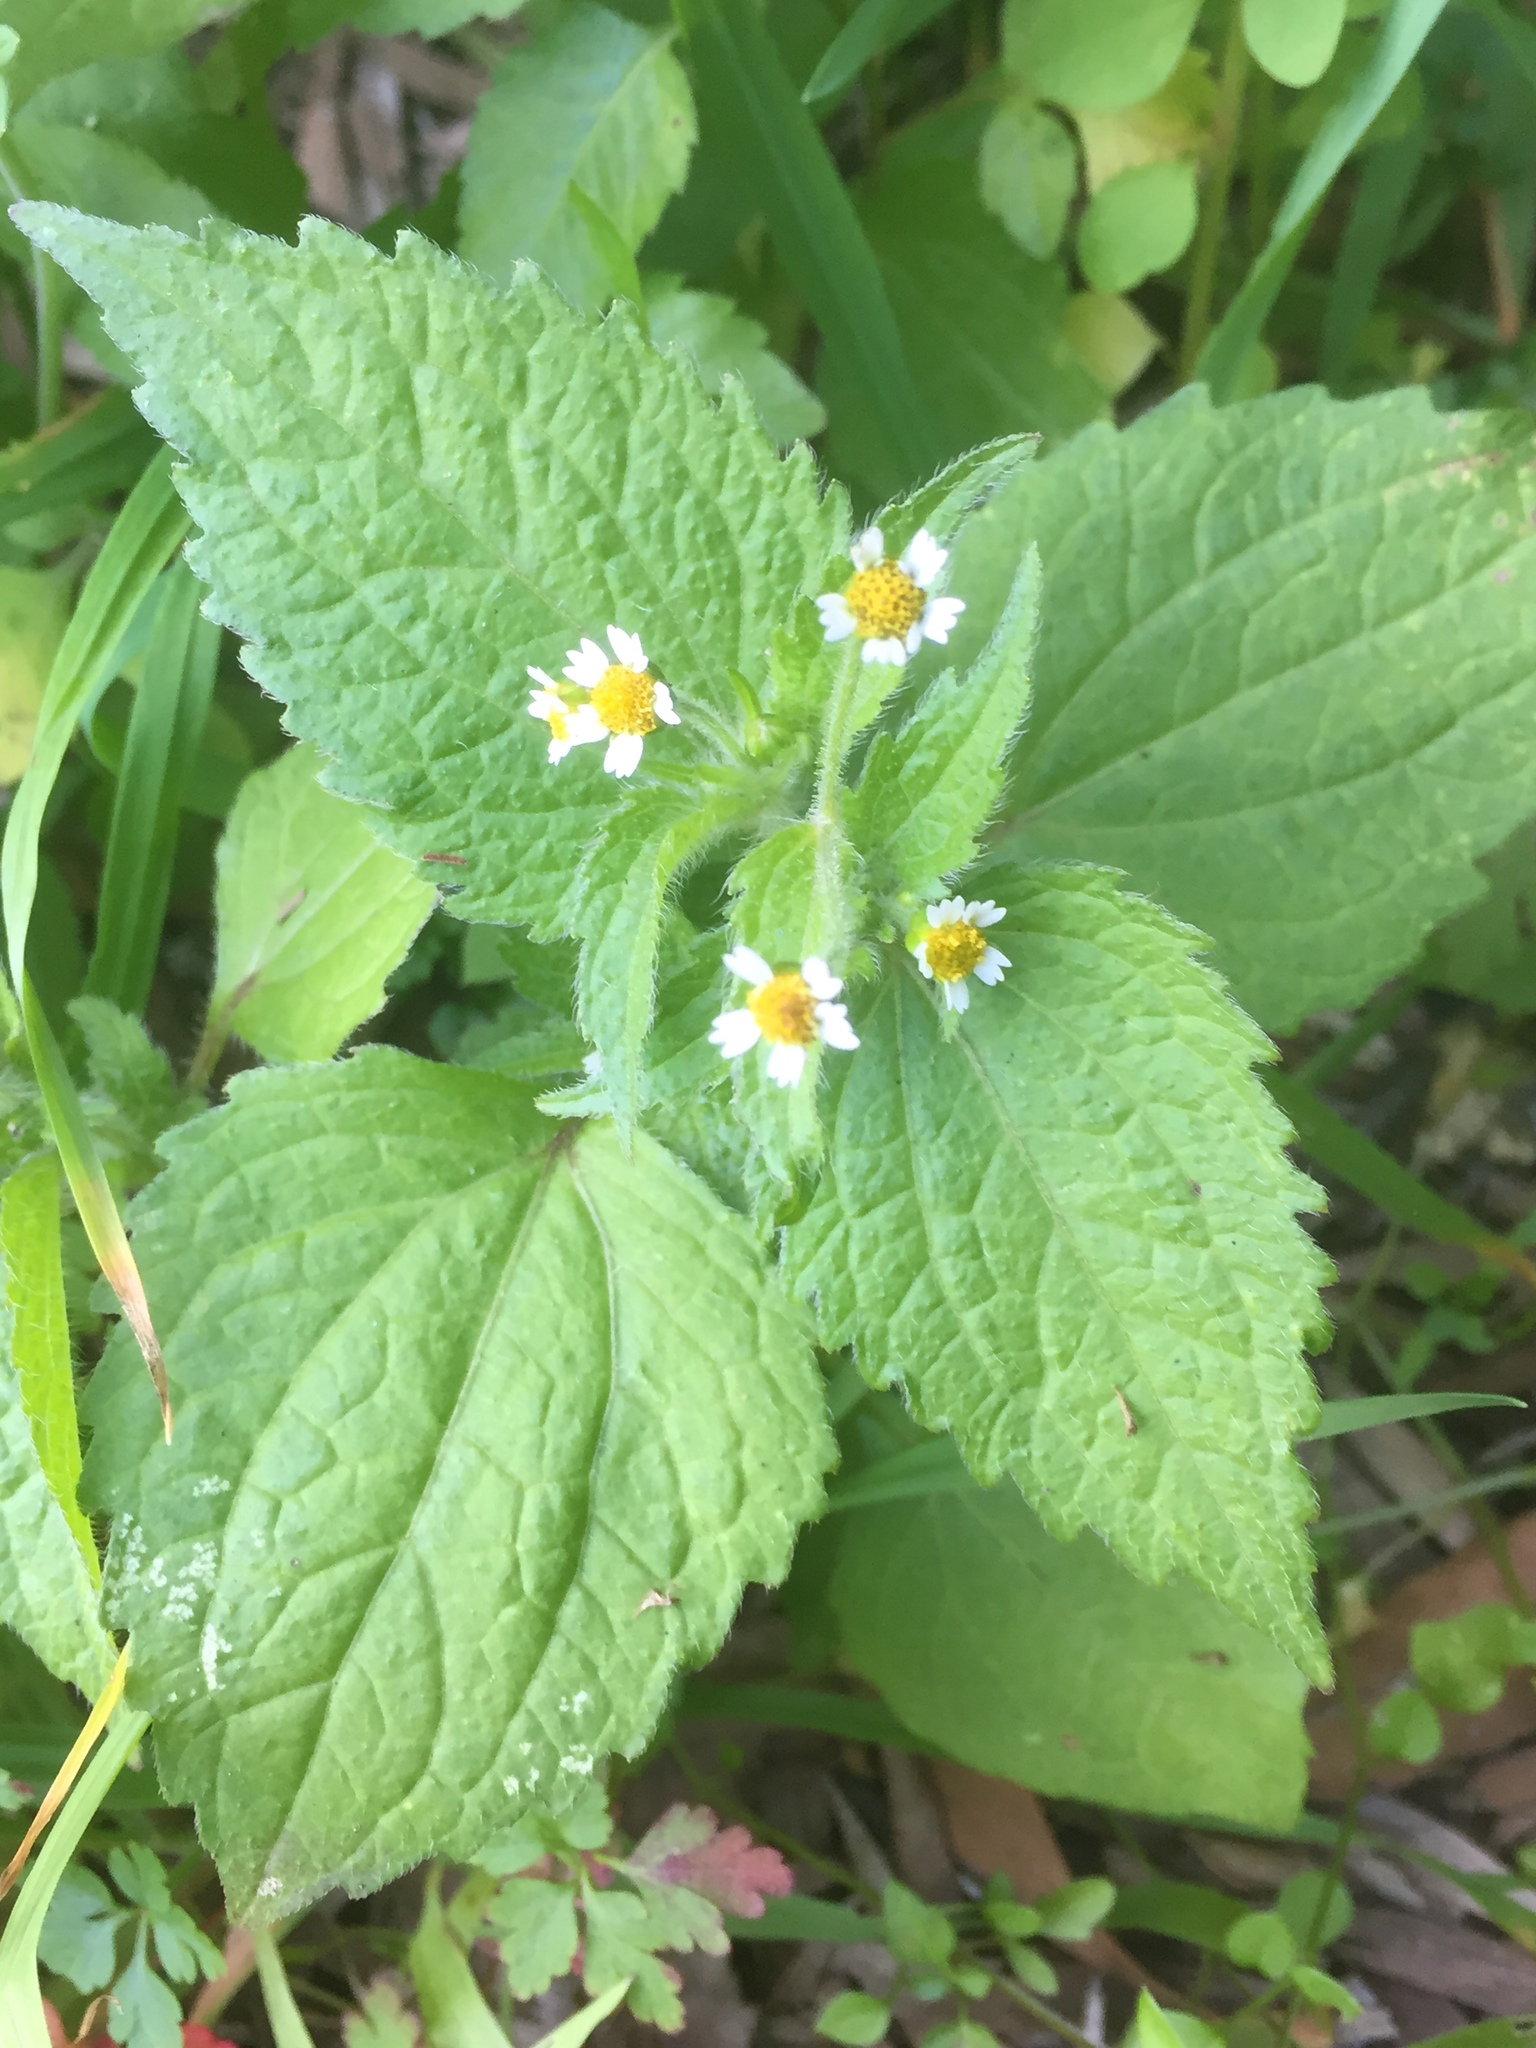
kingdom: Plantae
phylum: Tracheophyta
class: Magnoliopsida
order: Asterales
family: Asteraceae
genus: Galinsoga
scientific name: Galinsoga quadriradiata
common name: Shaggy soldier
